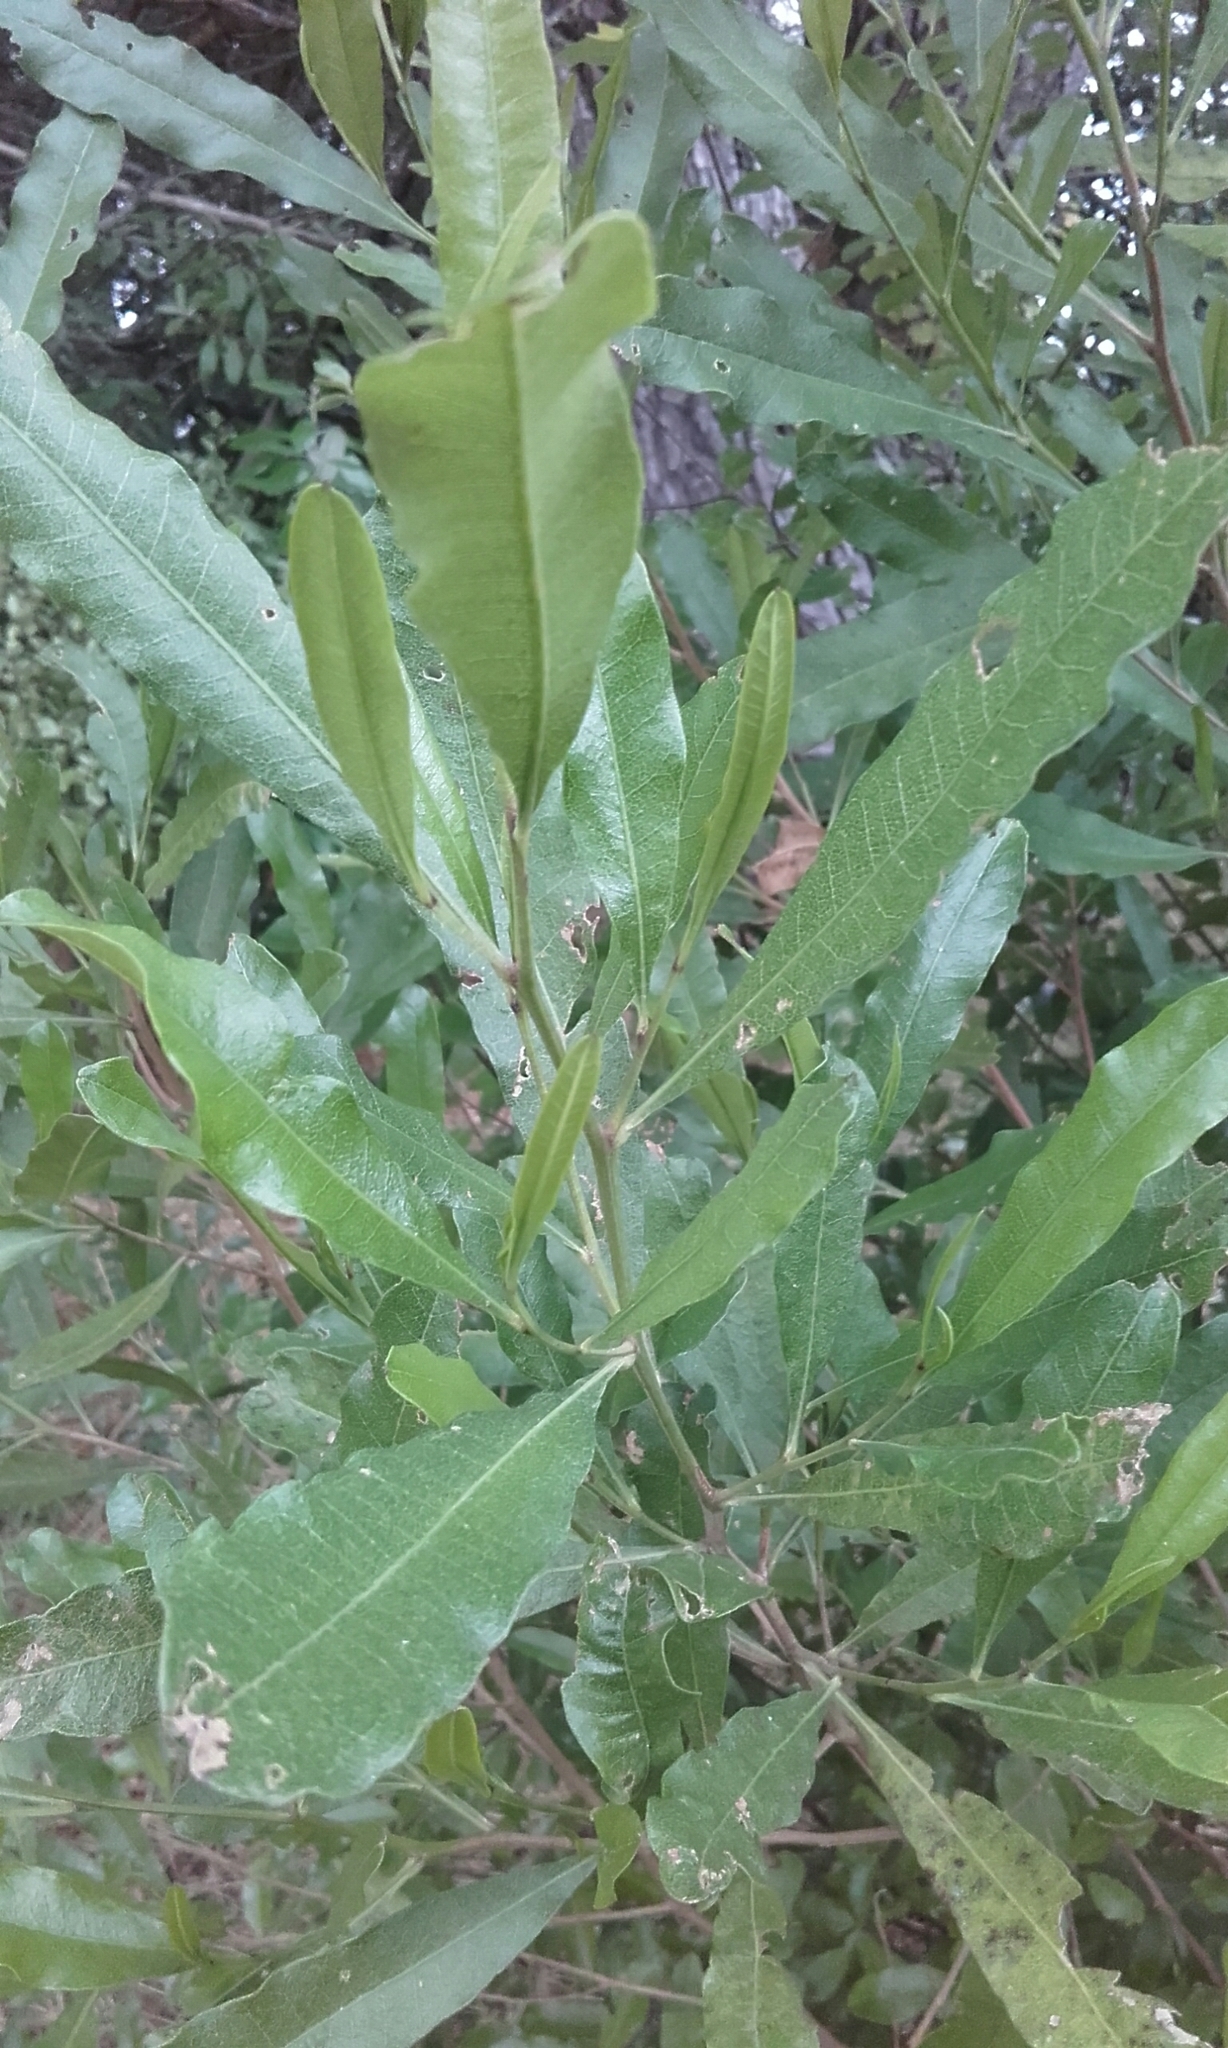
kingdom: Plantae
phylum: Tracheophyta
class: Magnoliopsida
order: Sapindales
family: Sapindaceae
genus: Dodonaea
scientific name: Dodonaea viscosa
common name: Hopbush
